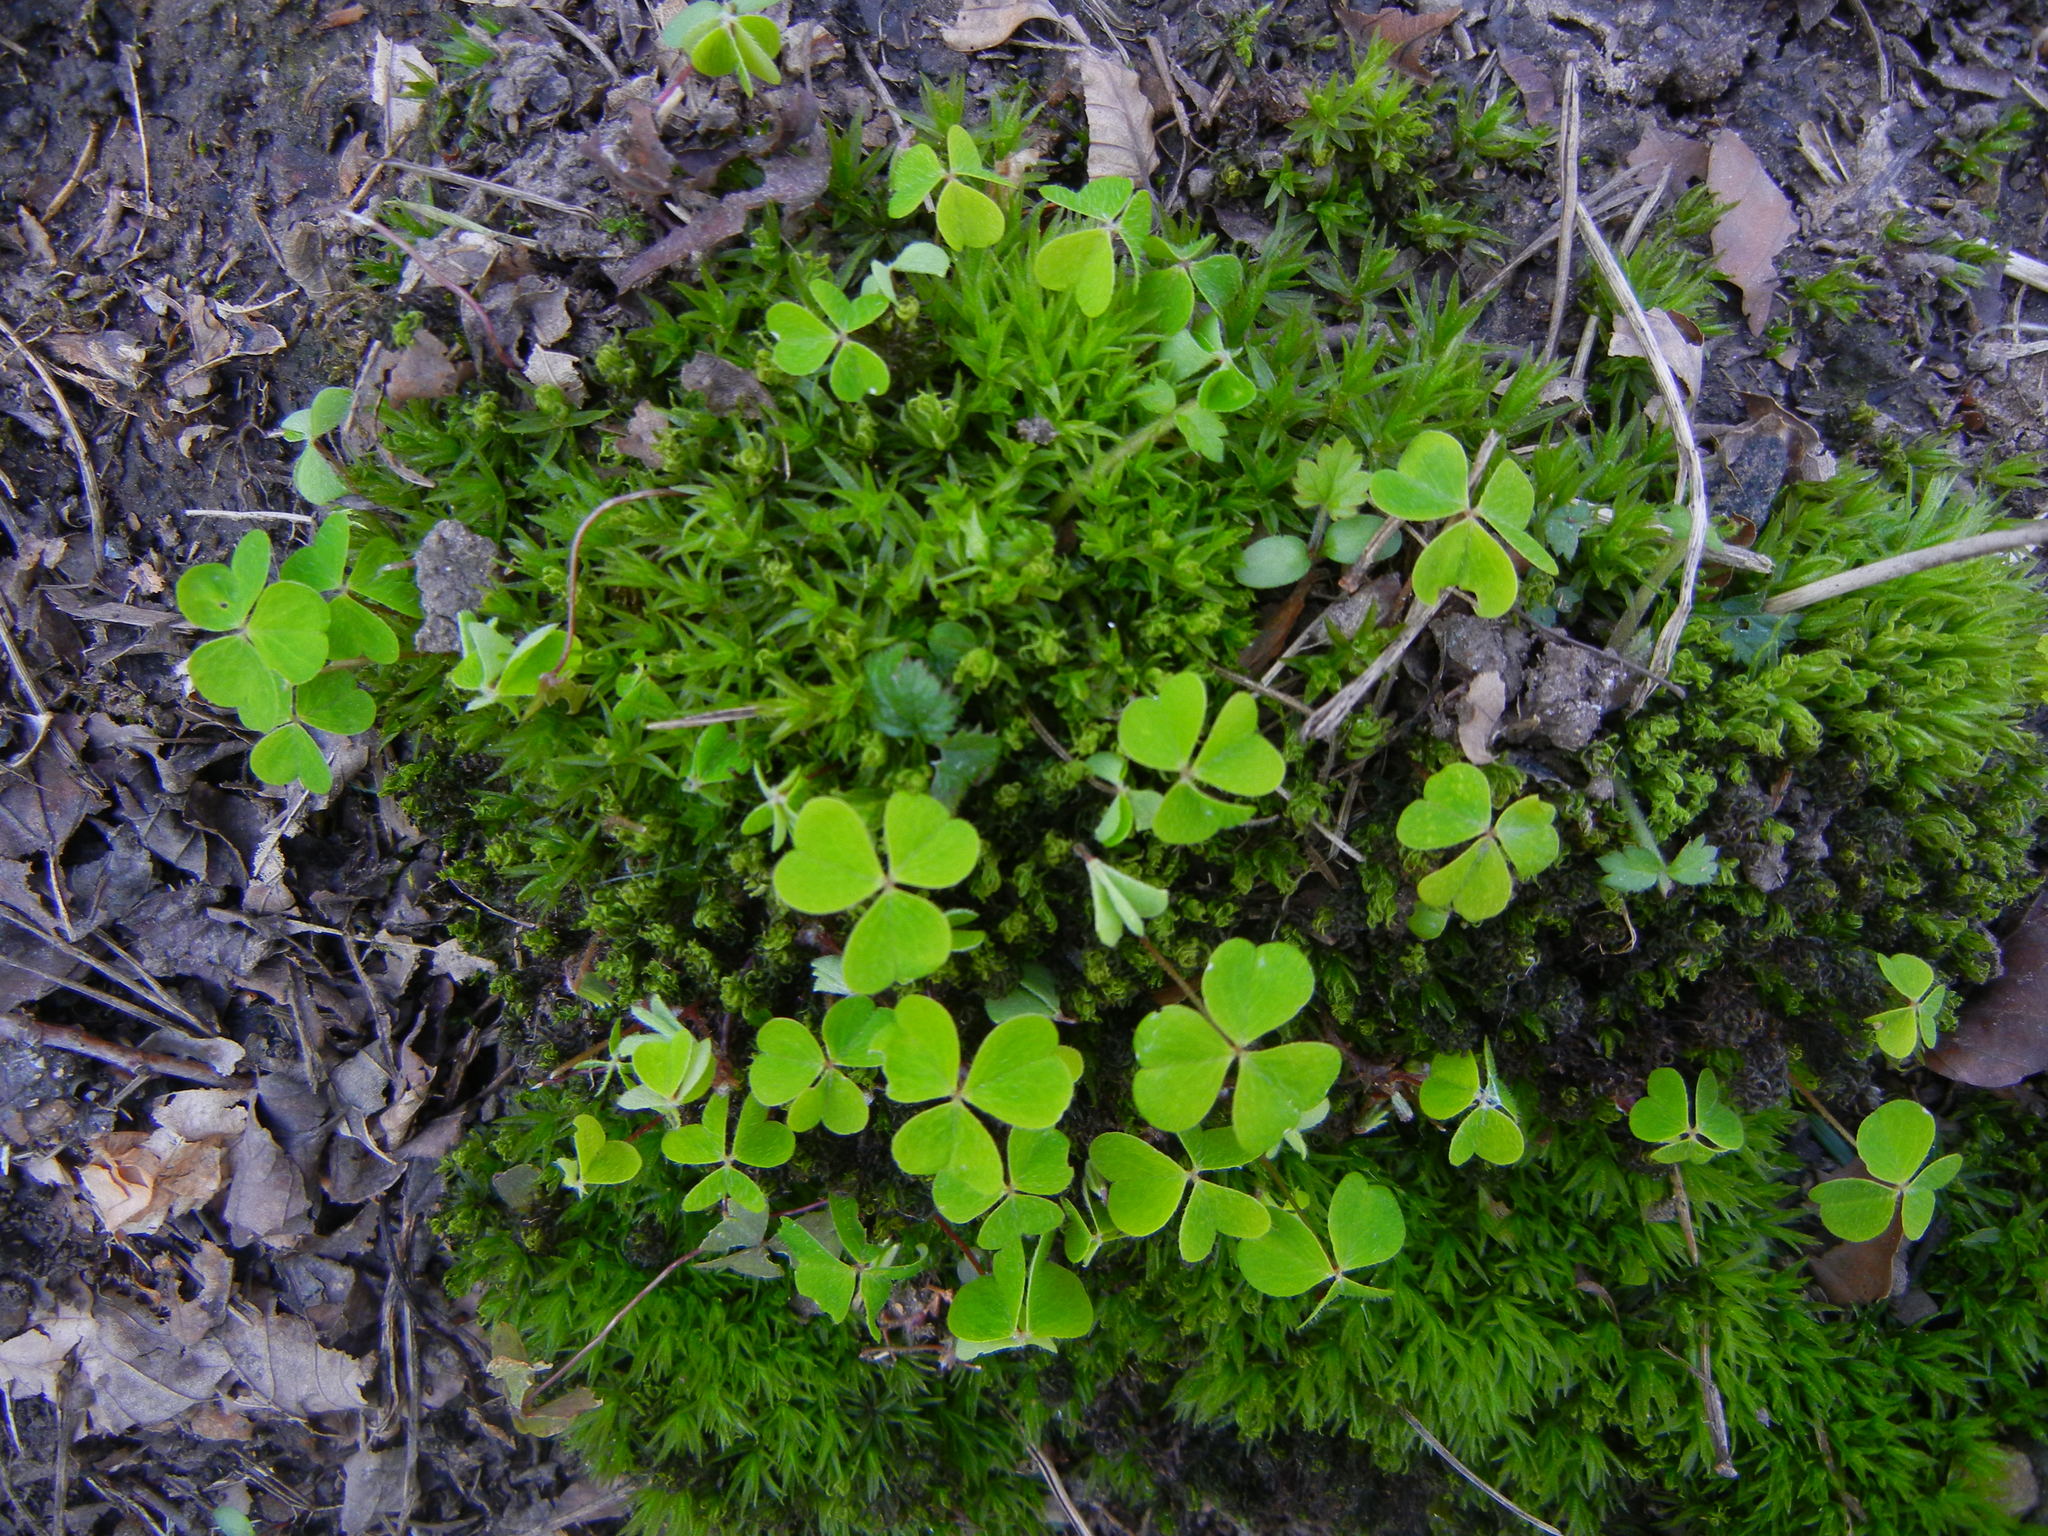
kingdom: Plantae
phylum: Tracheophyta
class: Magnoliopsida
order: Oxalidales
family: Oxalidaceae
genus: Oxalis
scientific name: Oxalis acetosella
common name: Wood-sorrel
